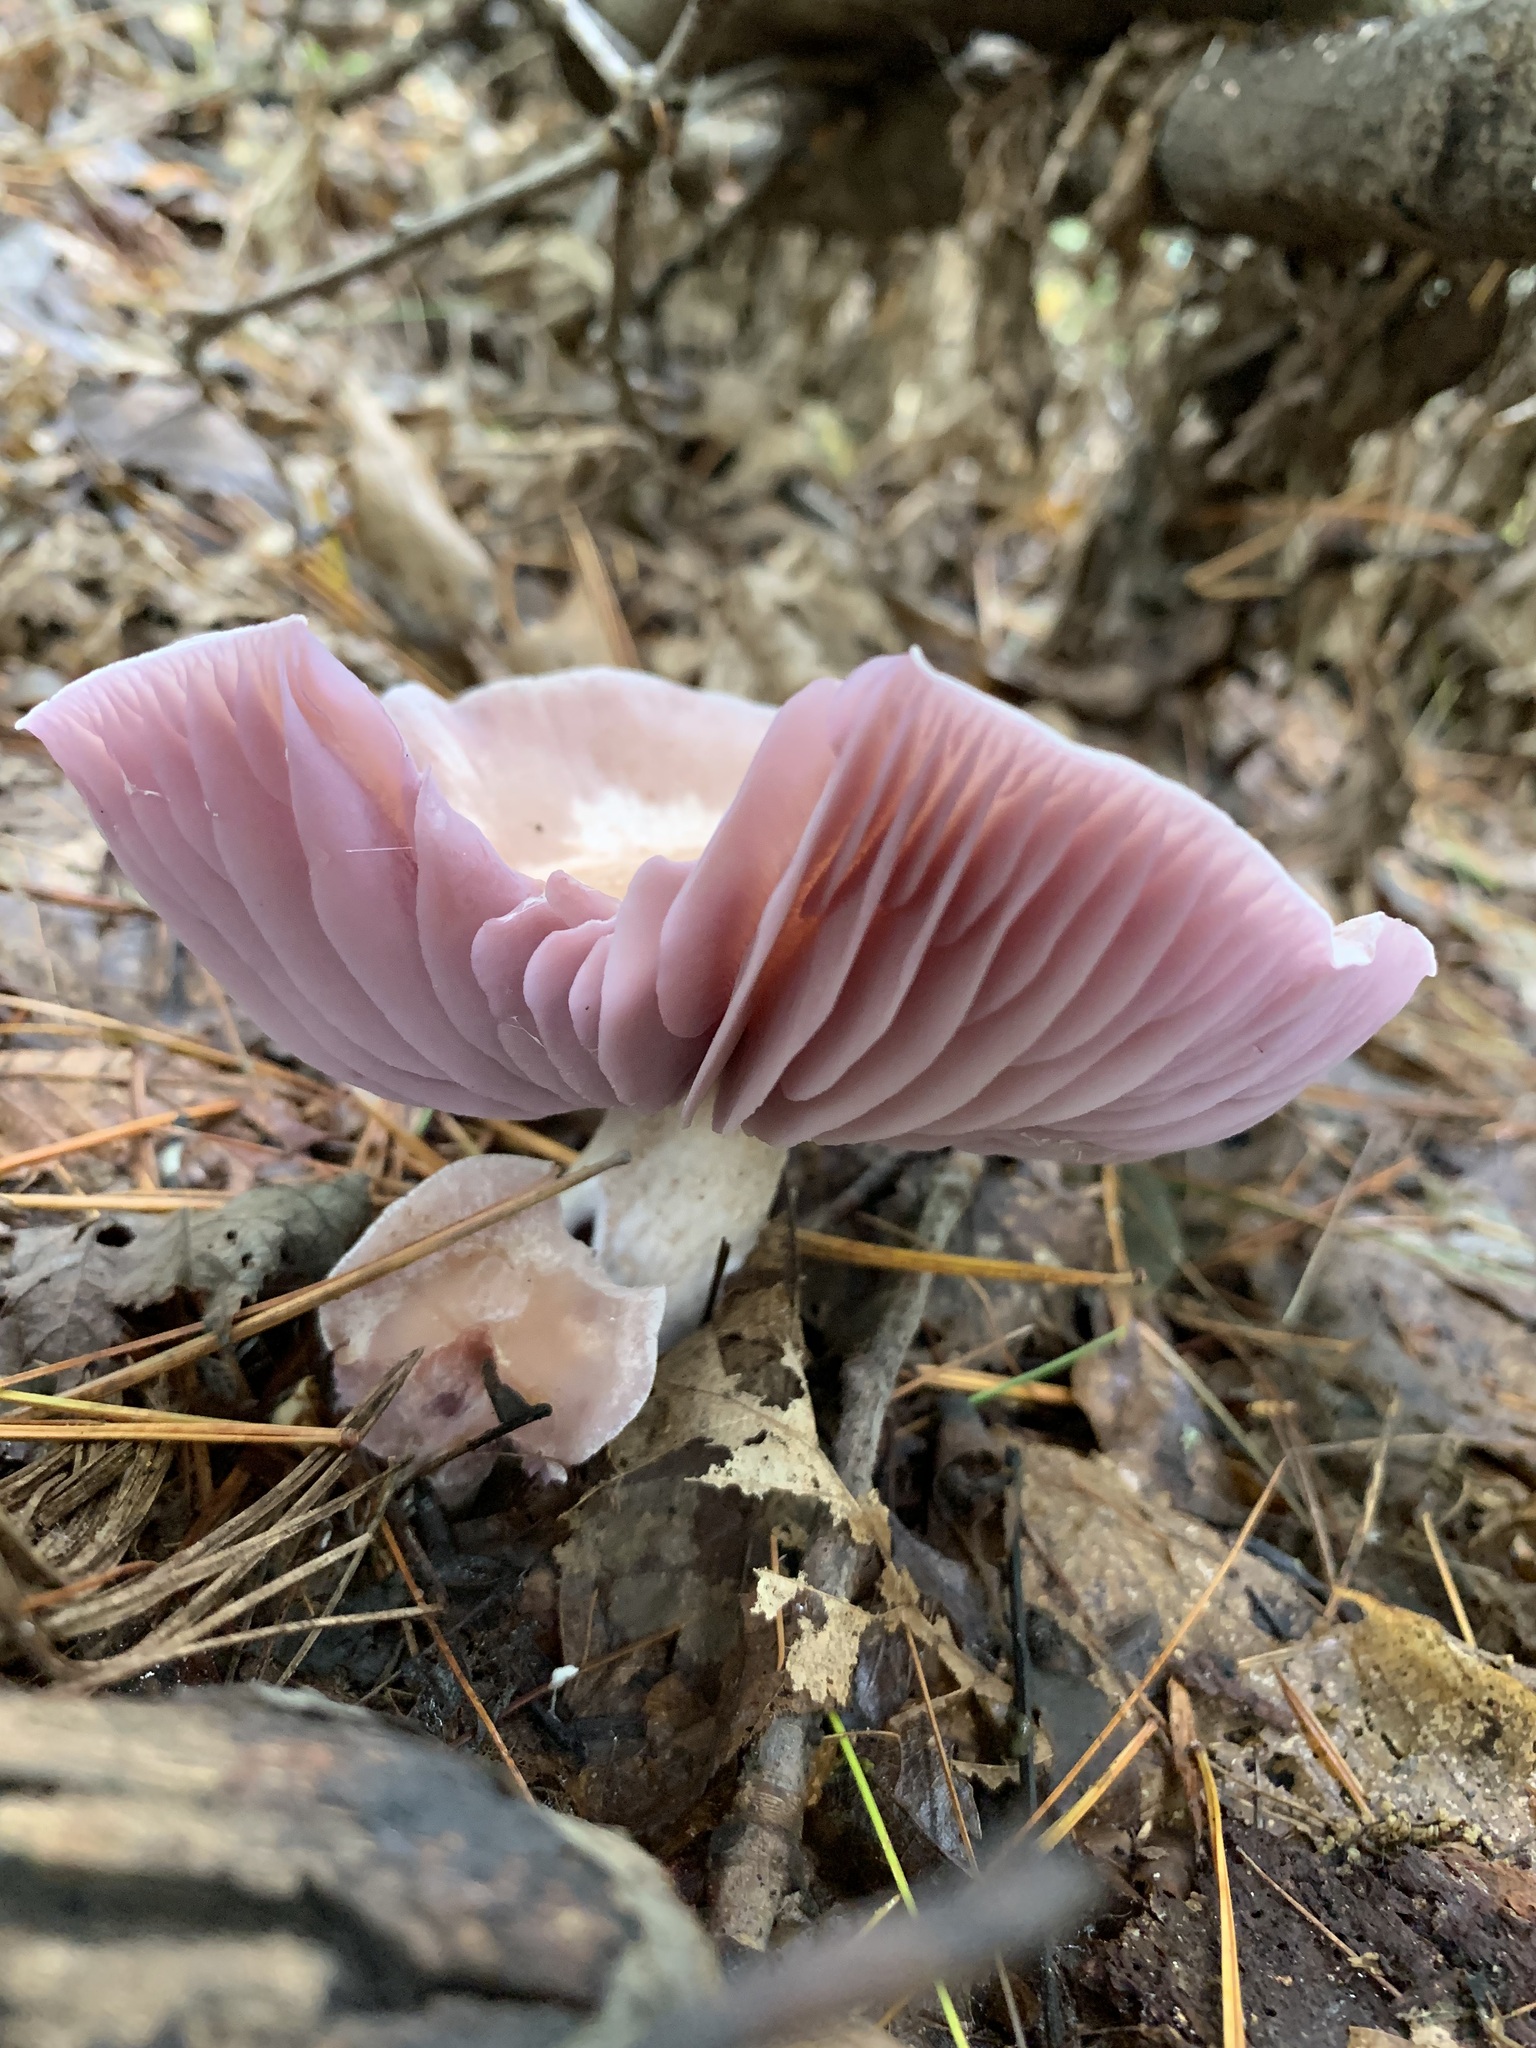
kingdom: Fungi
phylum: Basidiomycota
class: Agaricomycetes
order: Agaricales
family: Hydnangiaceae
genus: Laccaria
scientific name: Laccaria ochropurpurea
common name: Purple laccaria
